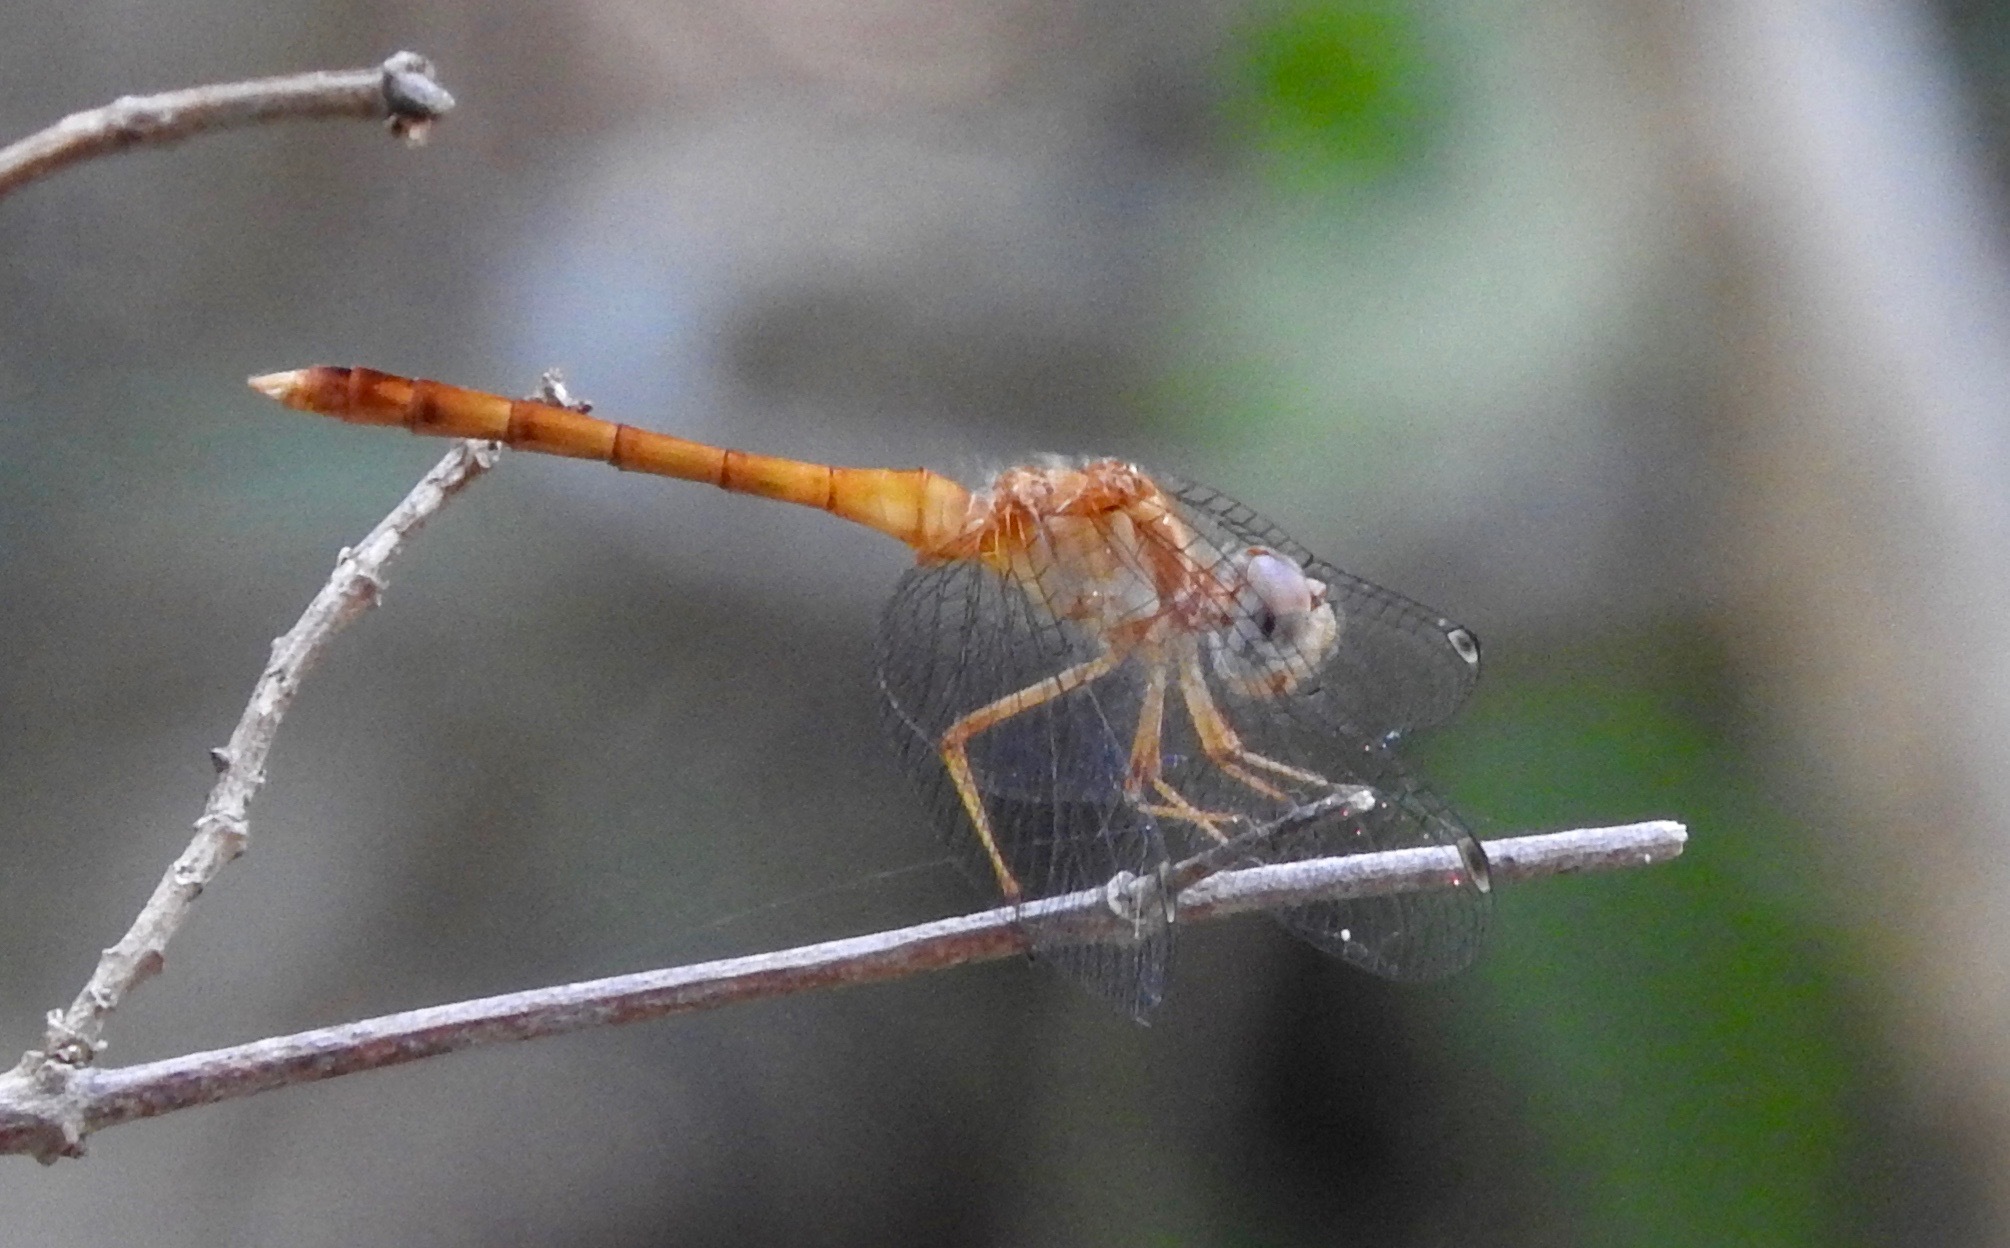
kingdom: Animalia
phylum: Arthropoda
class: Insecta
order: Odonata
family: Libellulidae
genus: Sympetrum
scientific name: Sympetrum vicinum
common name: Autumn meadowhawk
